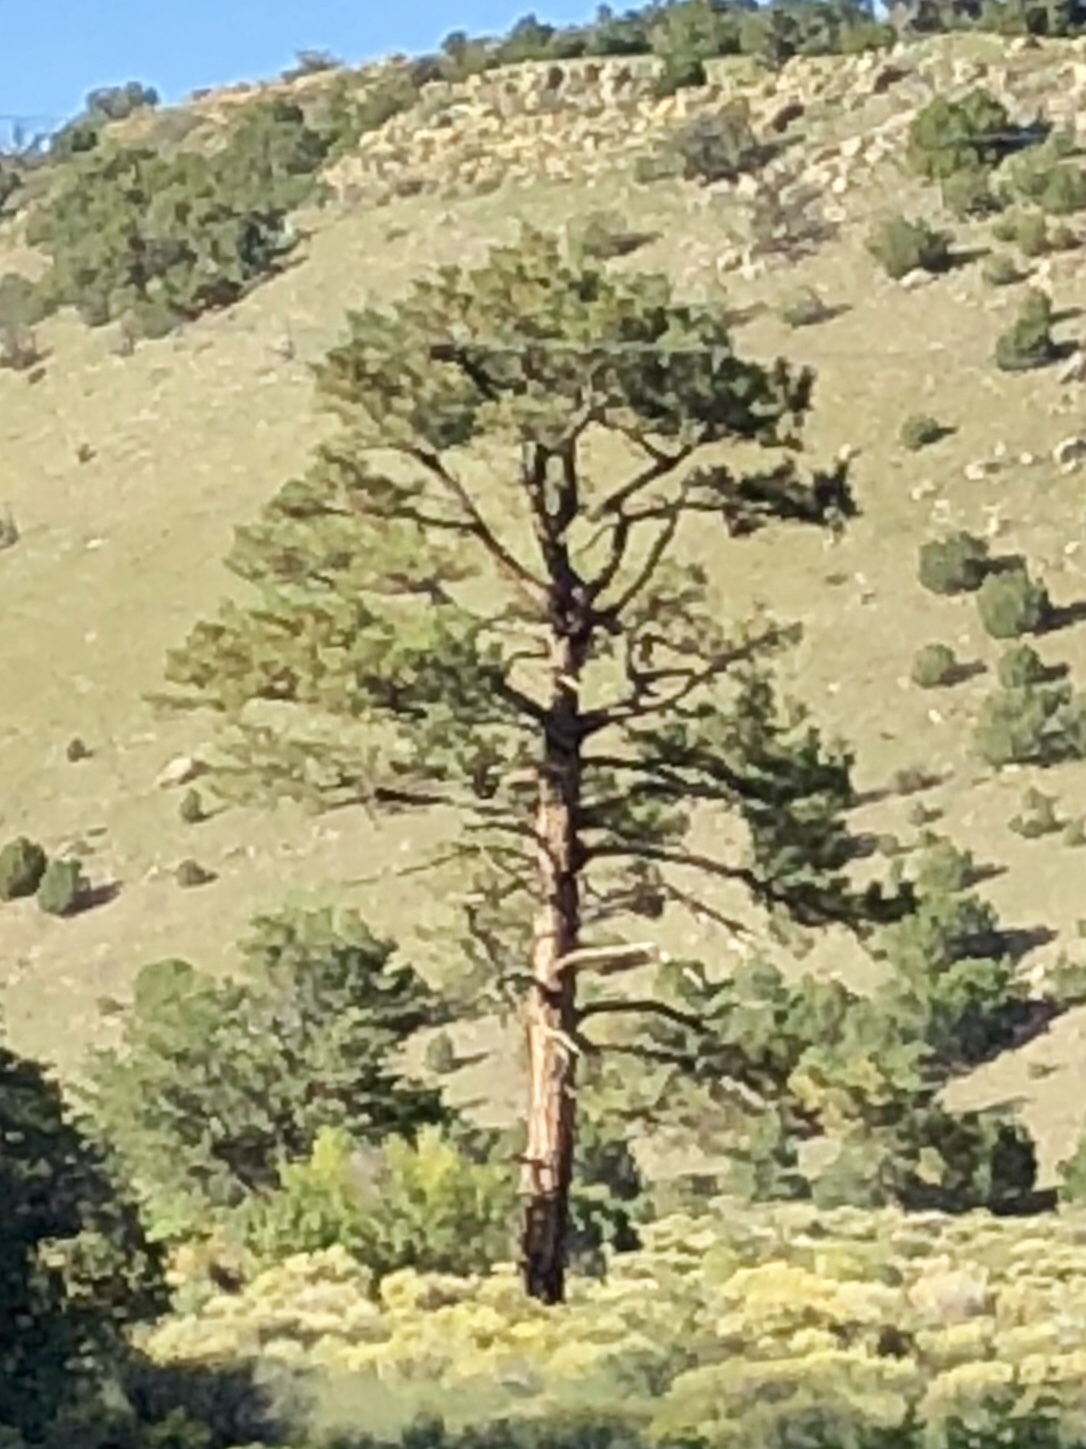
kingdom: Plantae
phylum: Tracheophyta
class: Pinopsida
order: Pinales
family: Pinaceae
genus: Pinus
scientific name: Pinus ponderosa
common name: Western yellow-pine
